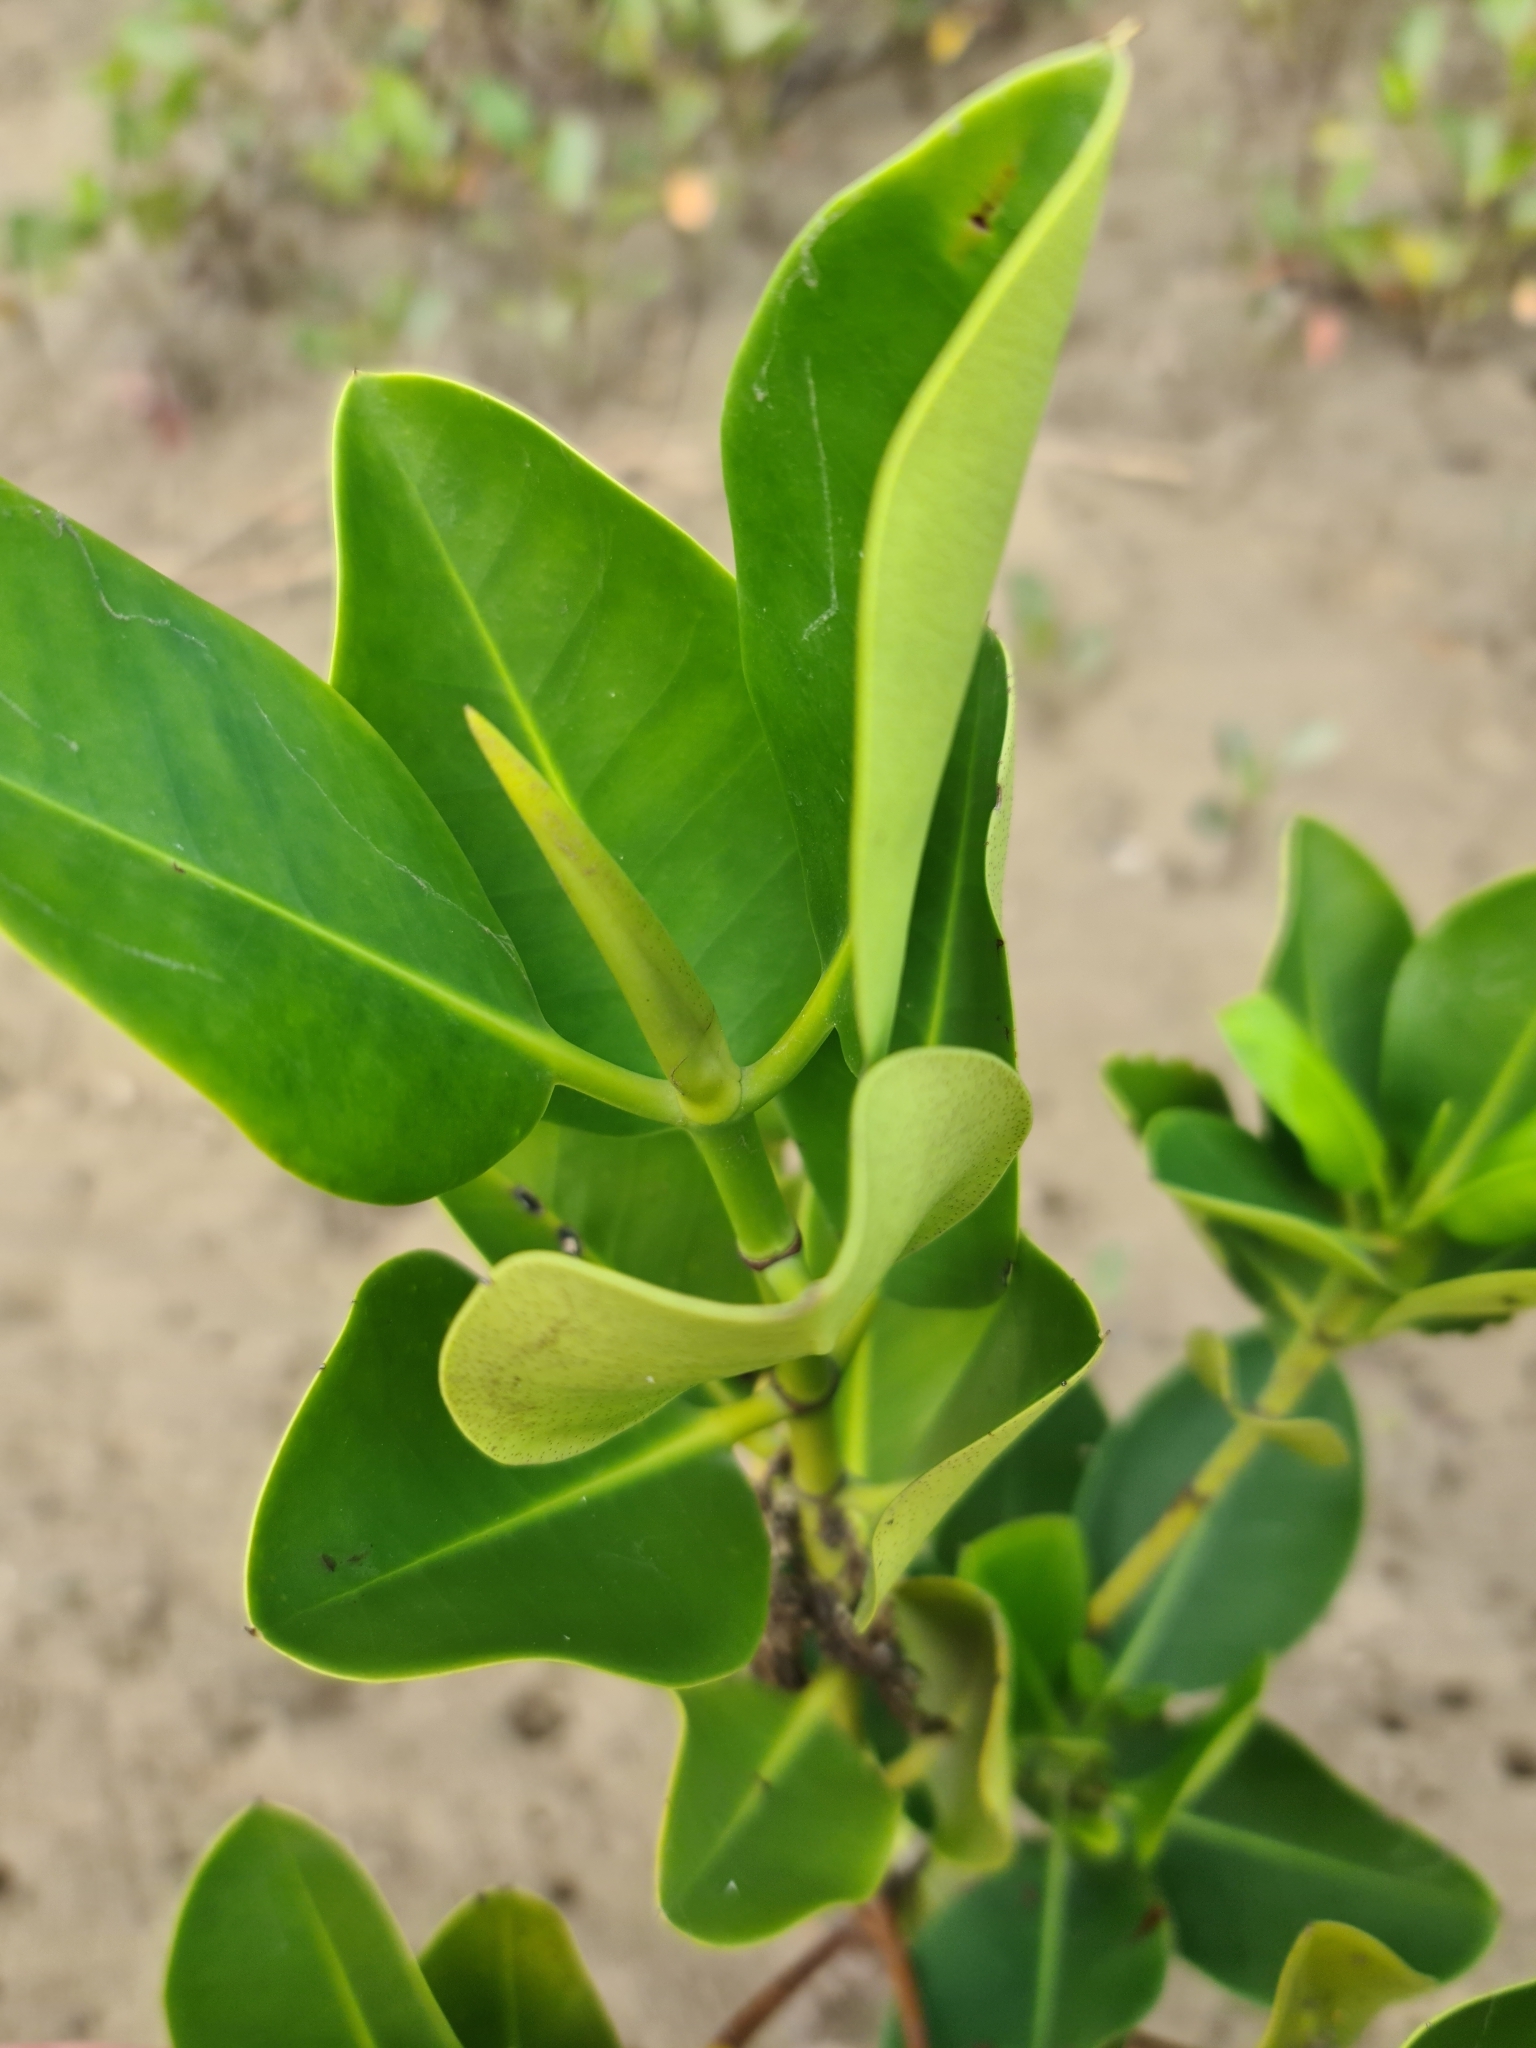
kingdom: Plantae
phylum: Tracheophyta
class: Magnoliopsida
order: Malpighiales
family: Rhizophoraceae
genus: Rhizophora
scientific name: Rhizophora stylosa
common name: Red mangrove
